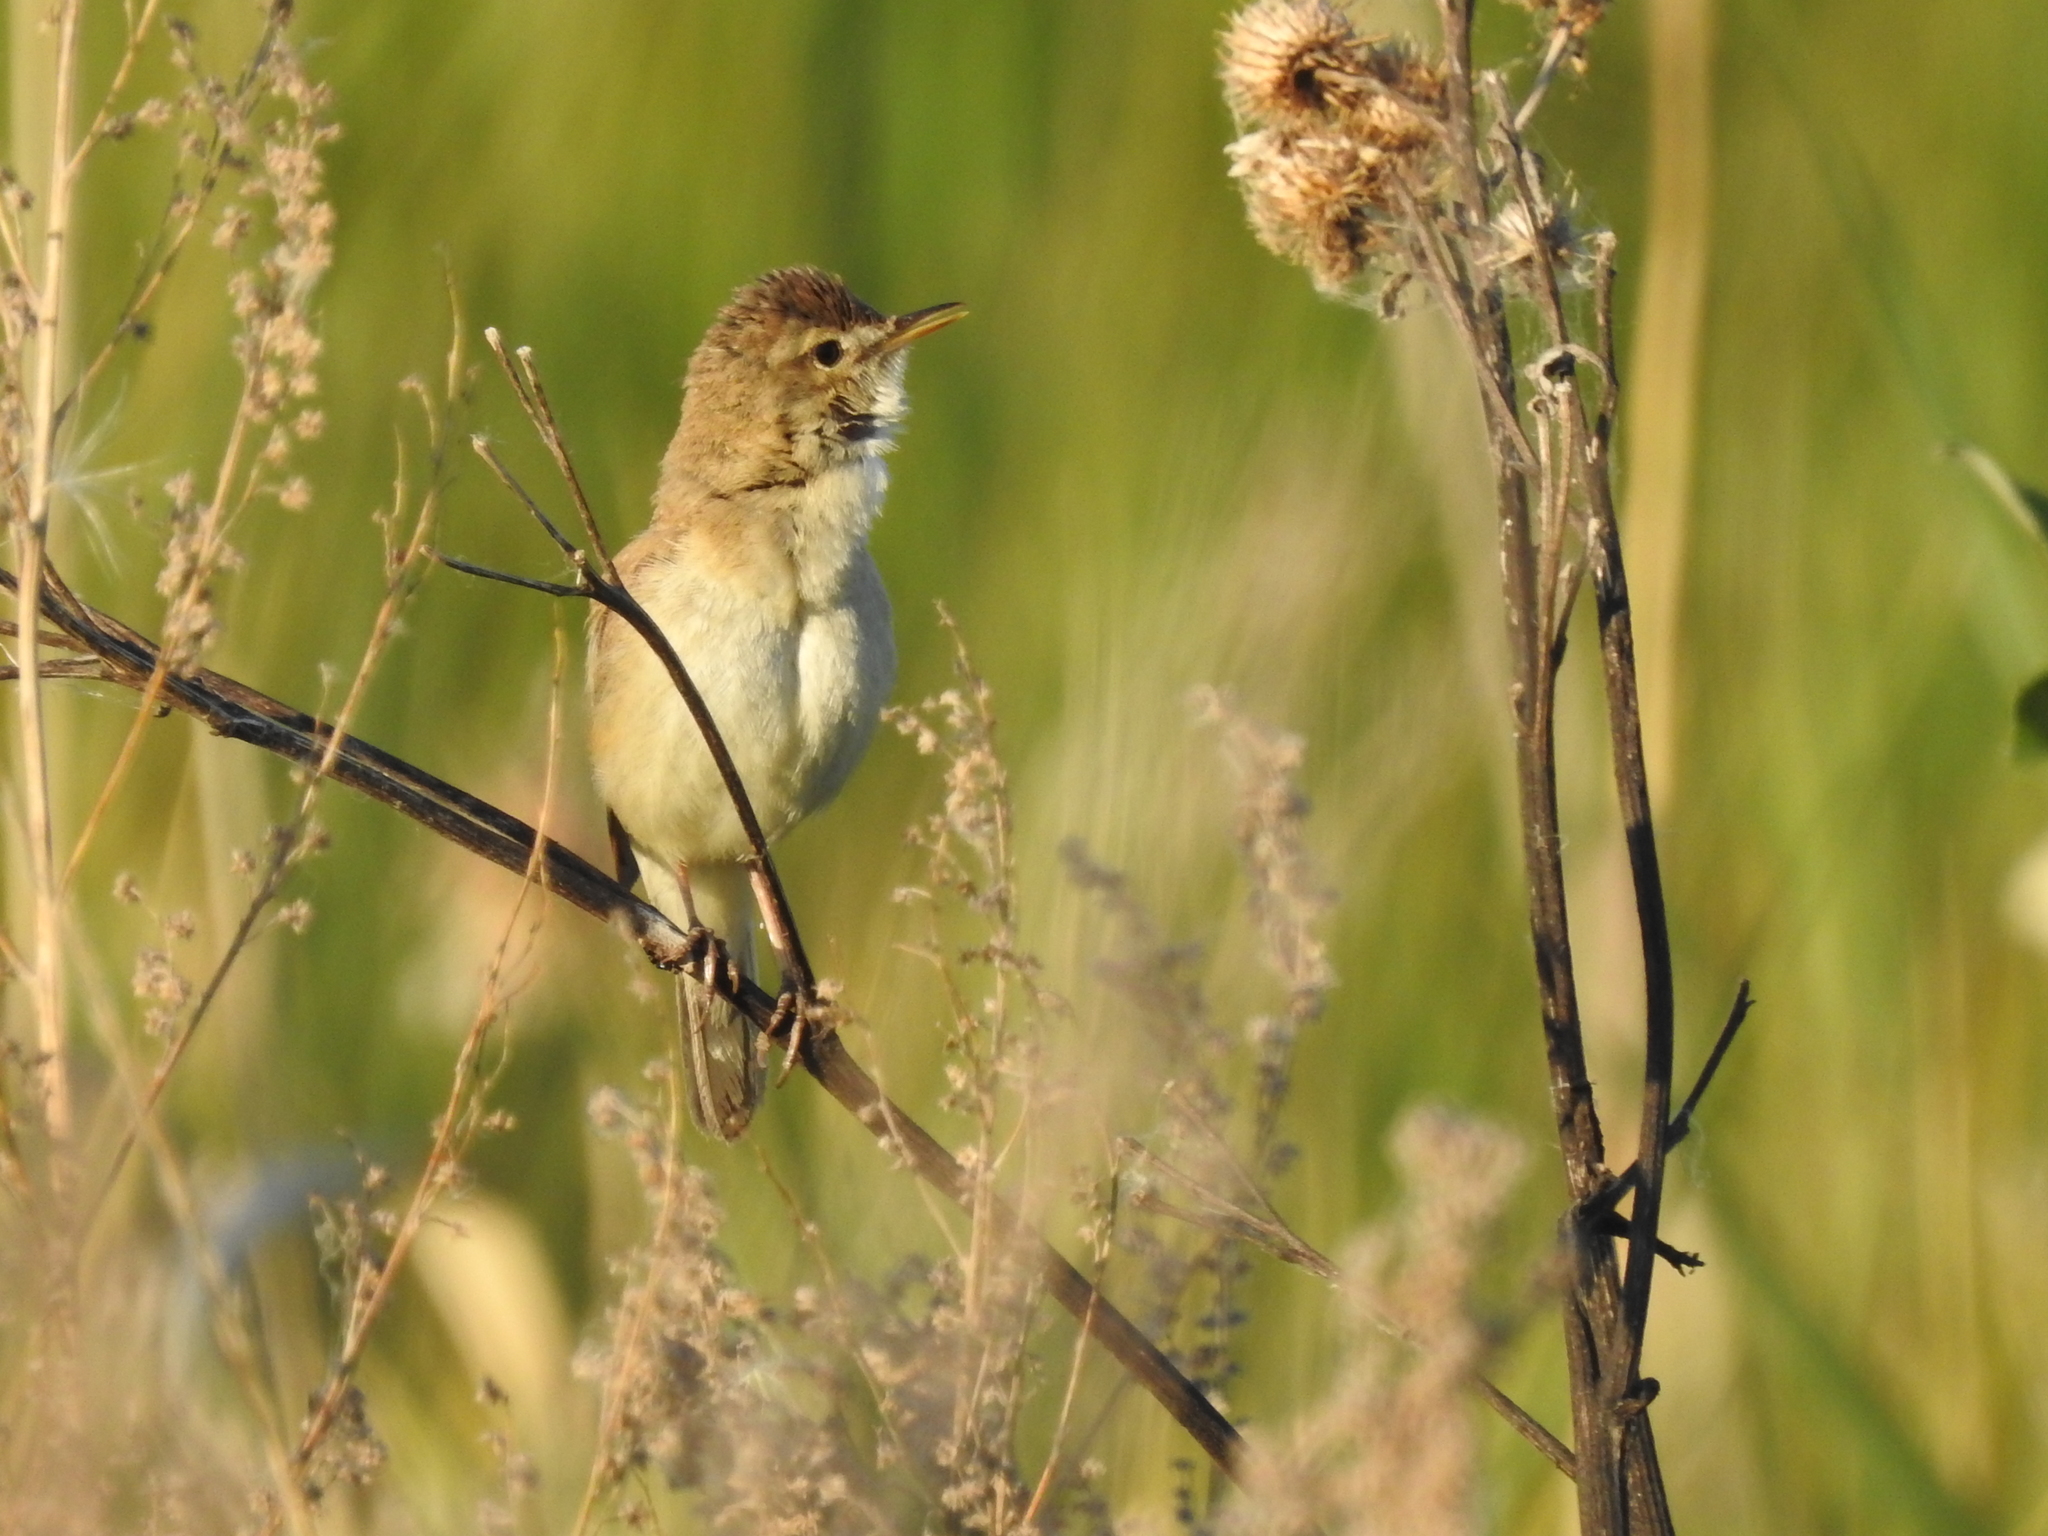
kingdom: Animalia
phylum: Chordata
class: Aves
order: Passeriformes
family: Acrocephalidae
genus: Iduna
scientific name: Iduna caligata
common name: Booted warbler
